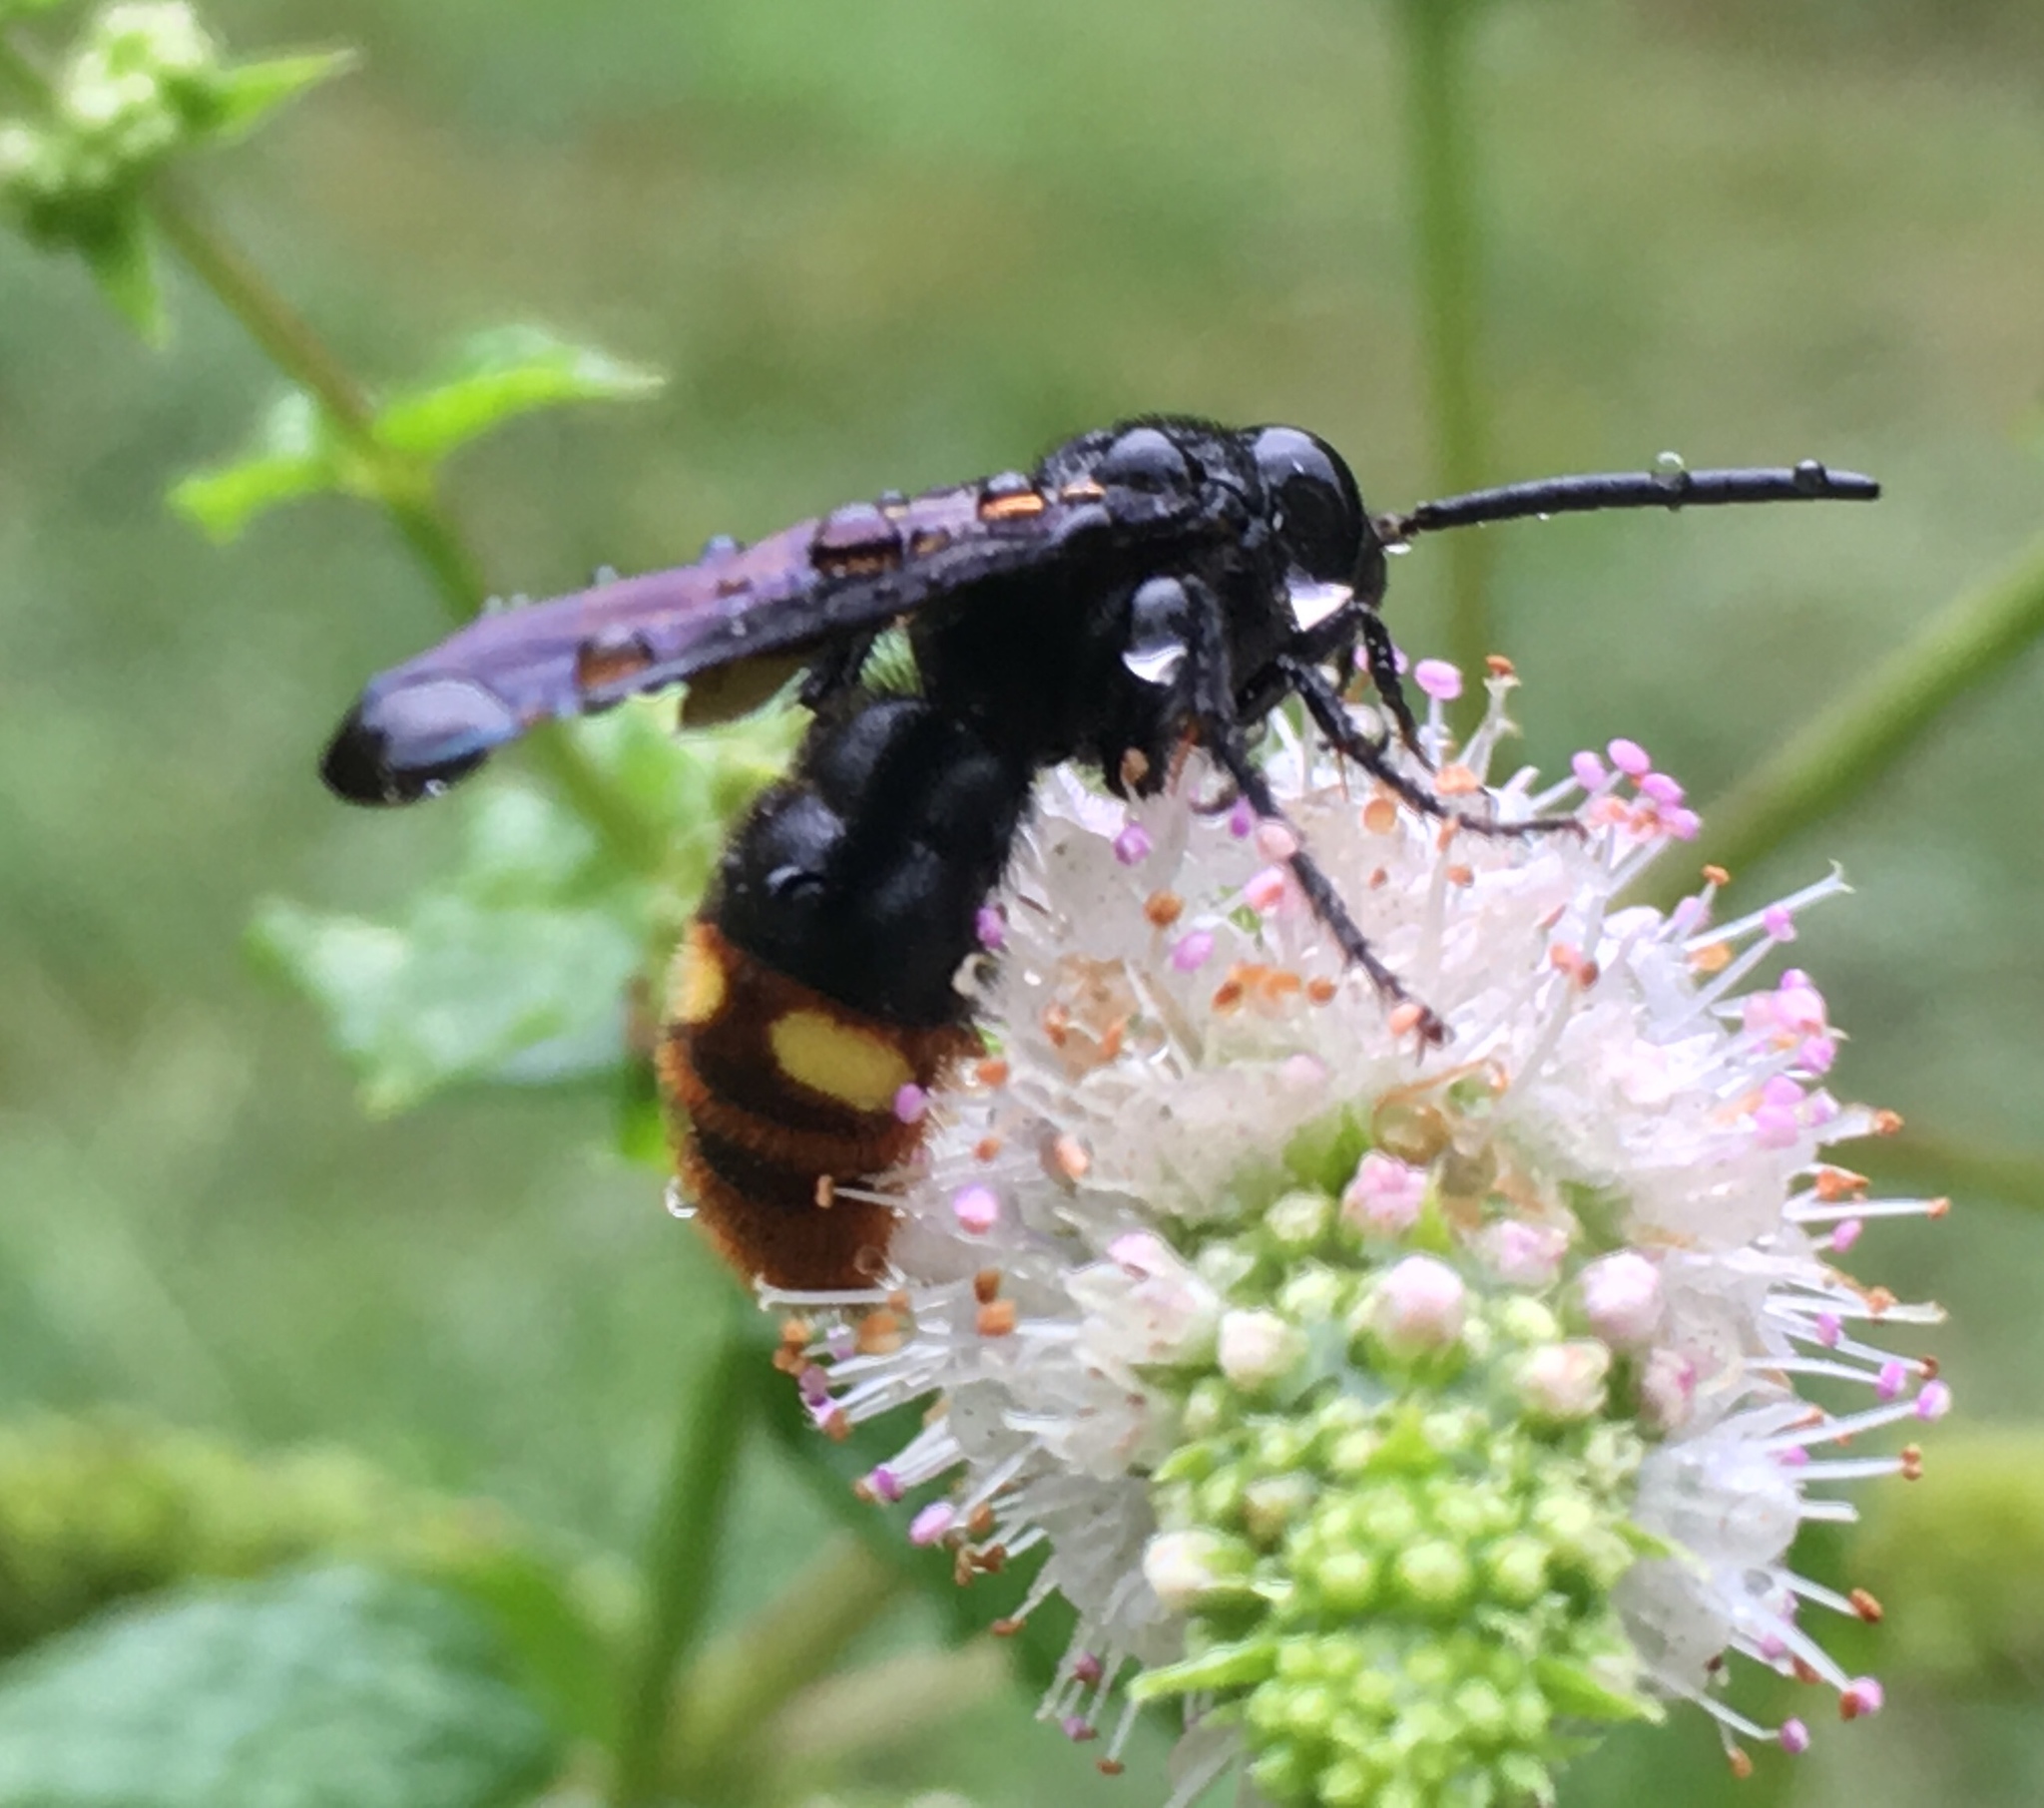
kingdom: Animalia
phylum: Arthropoda
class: Insecta
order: Hymenoptera
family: Scoliidae
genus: Scolia
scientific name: Scolia dubia
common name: Blue-winged scoliid wasp
